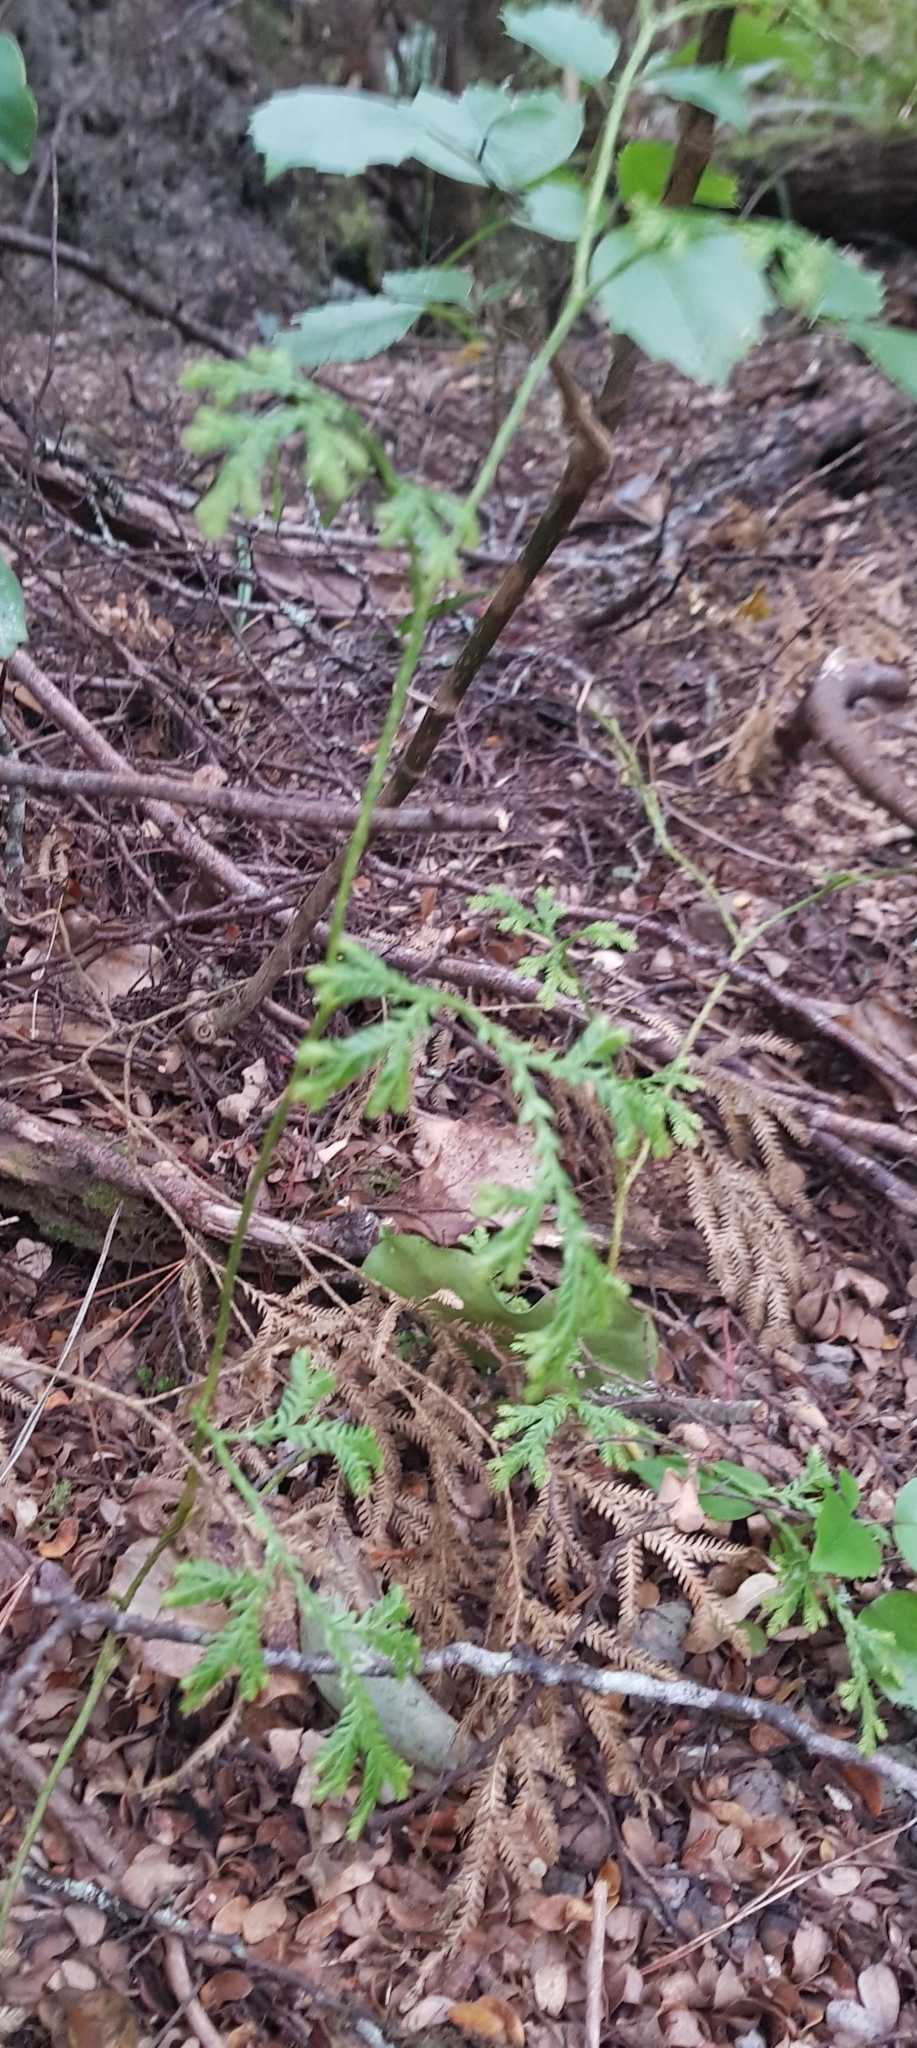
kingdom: Plantae
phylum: Tracheophyta
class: Lycopodiopsida
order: Lycopodiales
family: Lycopodiaceae
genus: Lycopodium
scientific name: Lycopodium volubile
